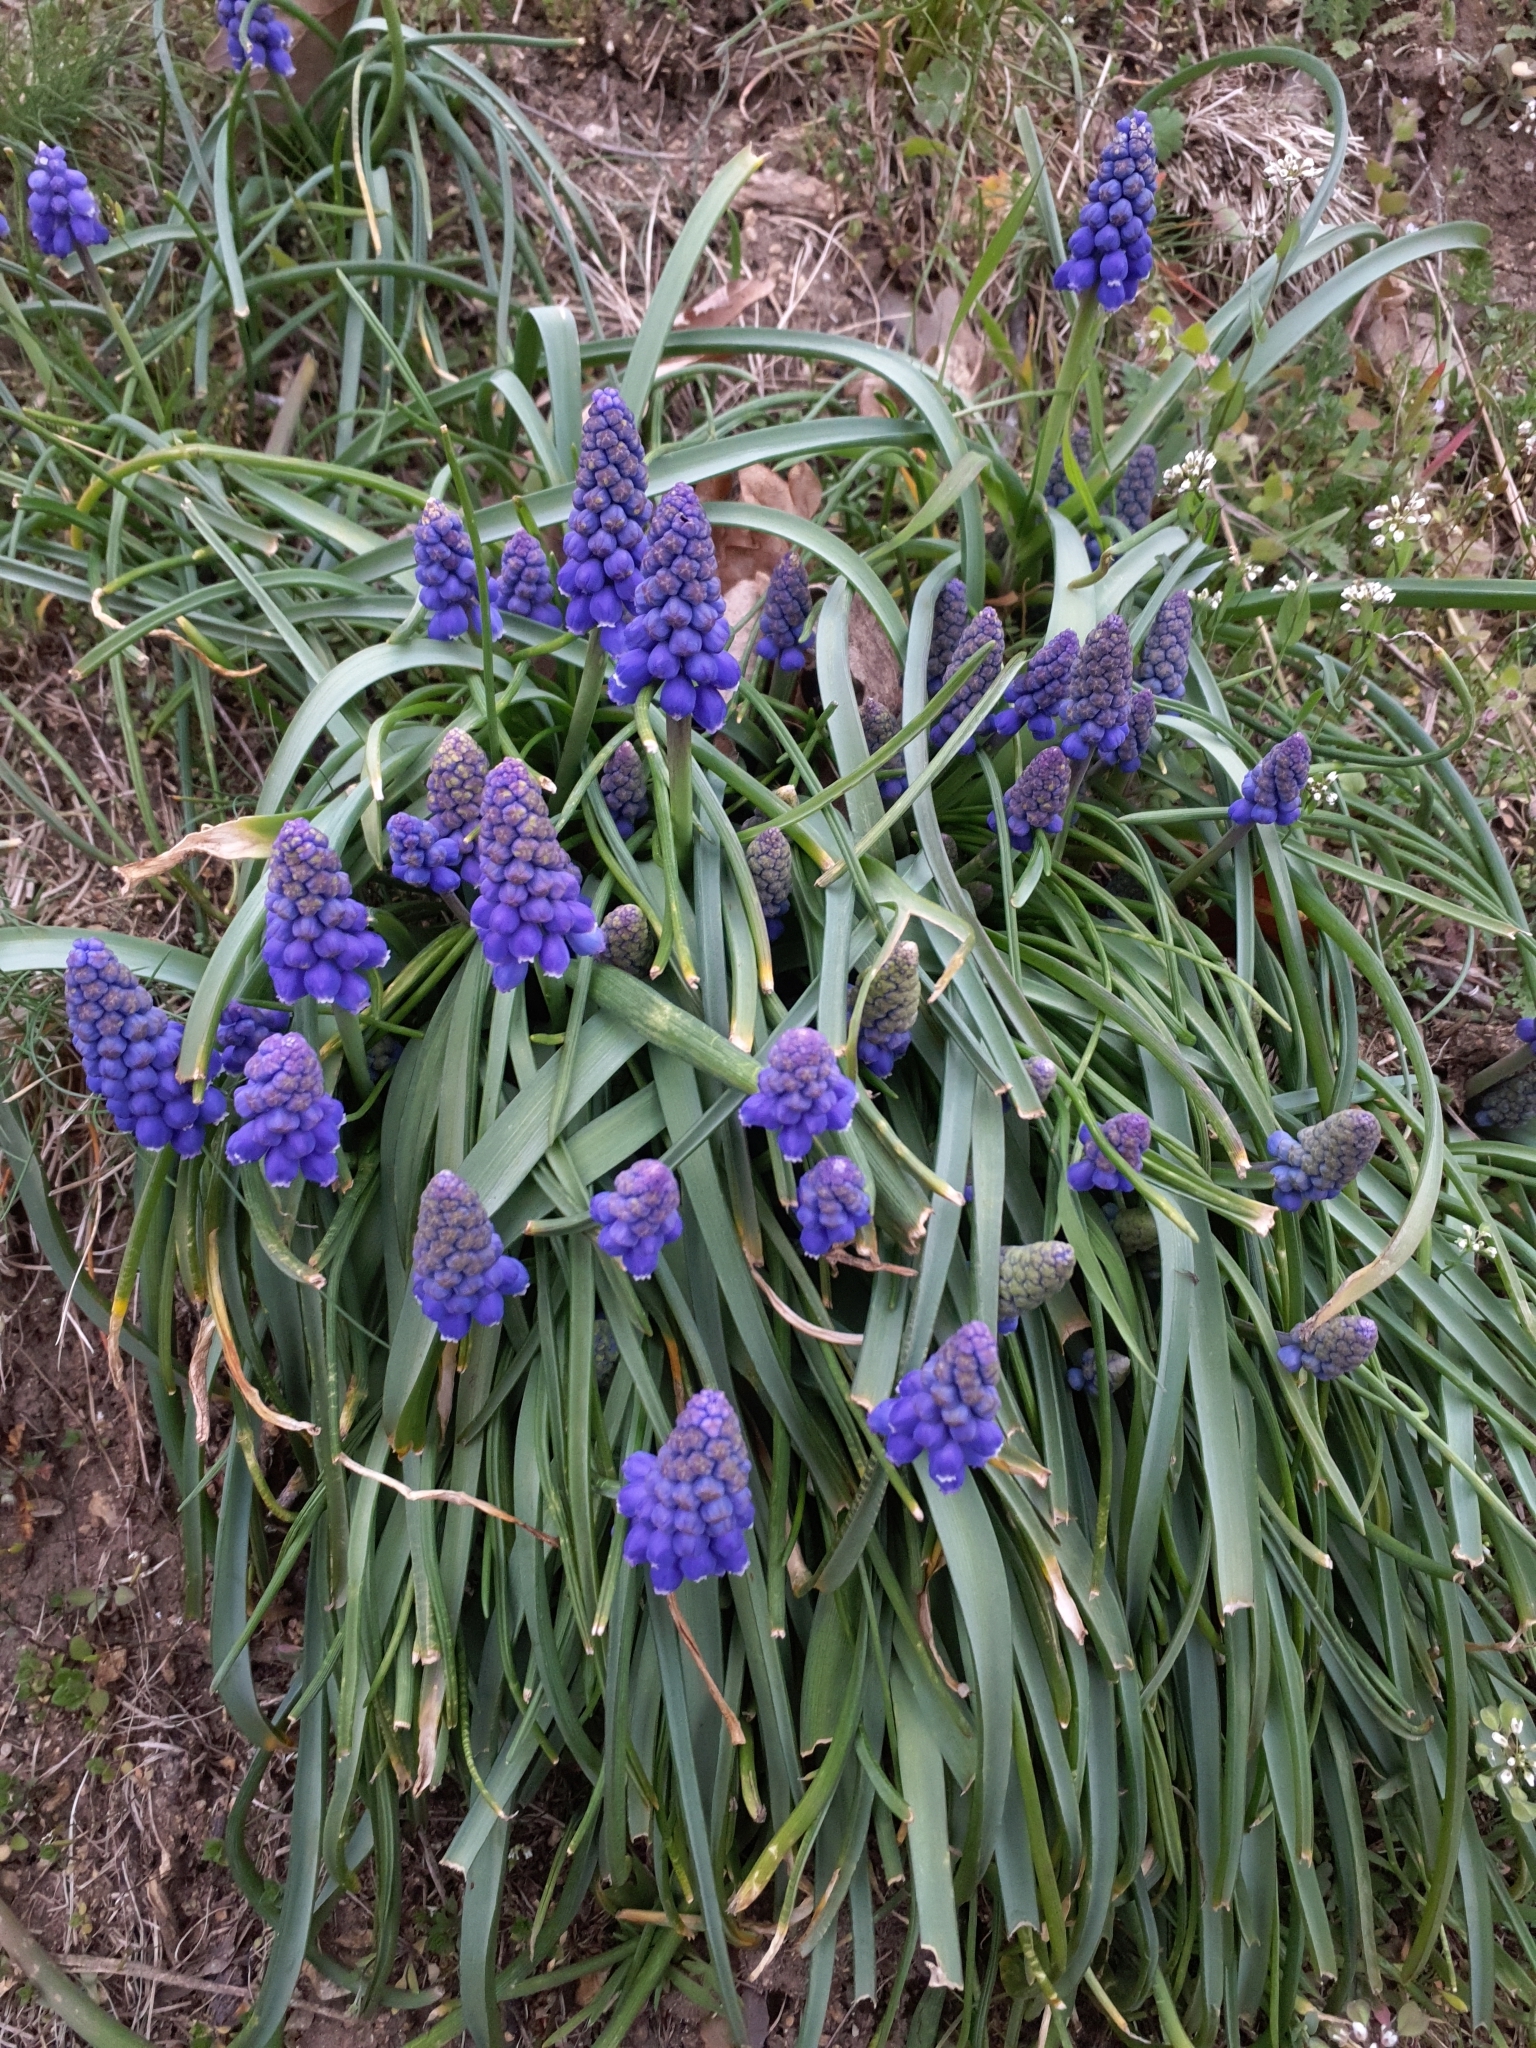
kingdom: Plantae
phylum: Tracheophyta
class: Liliopsida
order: Asparagales
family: Asparagaceae
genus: Muscari
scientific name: Muscari armeniacum
